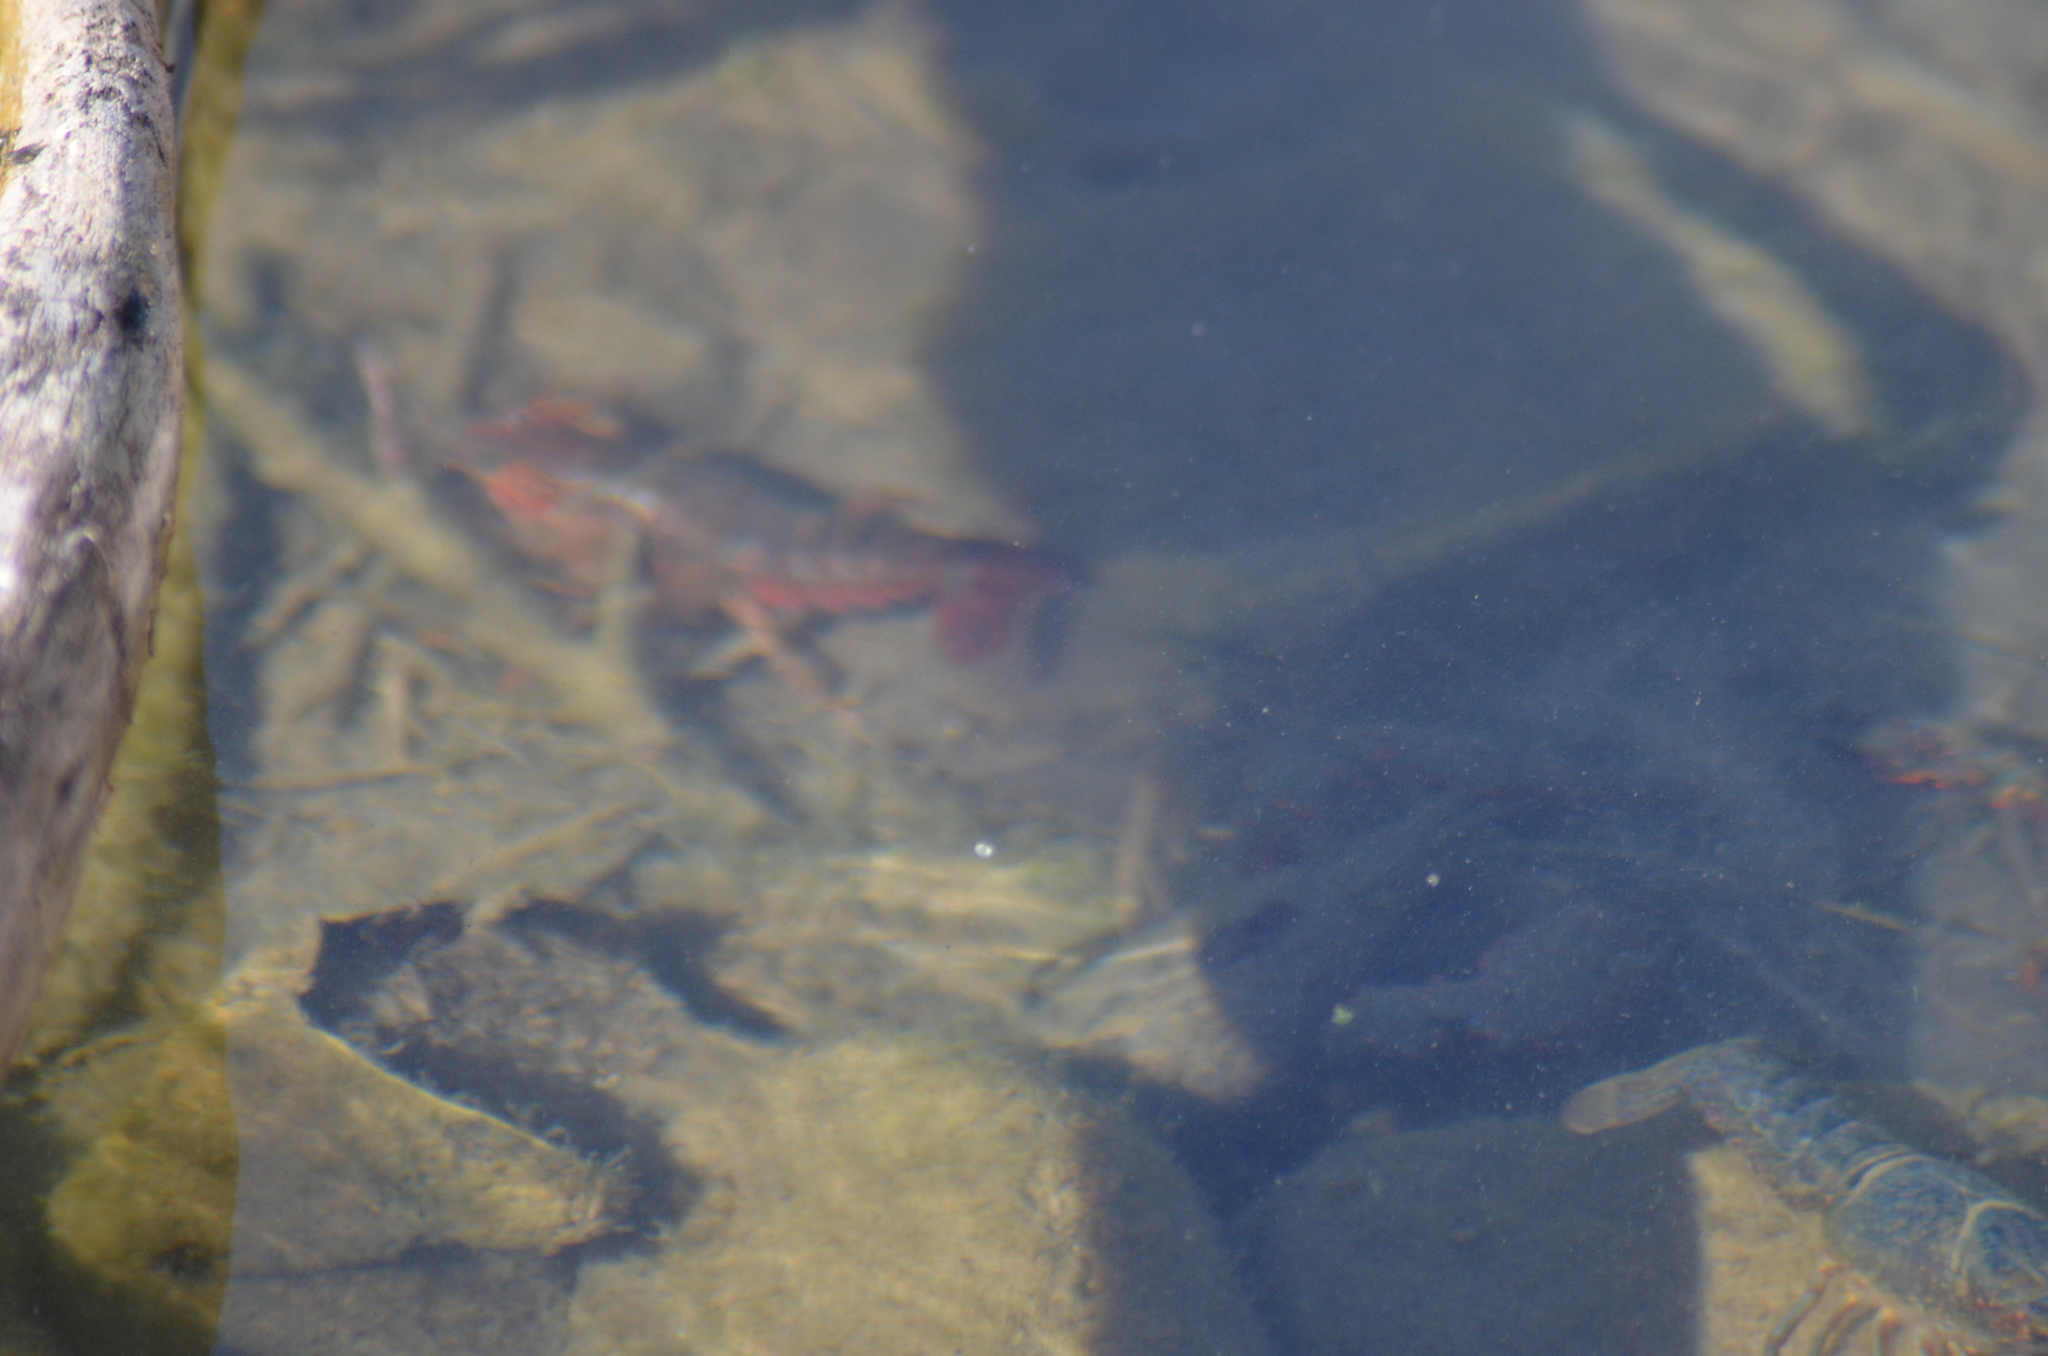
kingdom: Animalia
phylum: Arthropoda
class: Malacostraca
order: Decapoda
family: Cambaridae
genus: Procambarus
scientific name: Procambarus clarkii
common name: Red swamp crayfish
